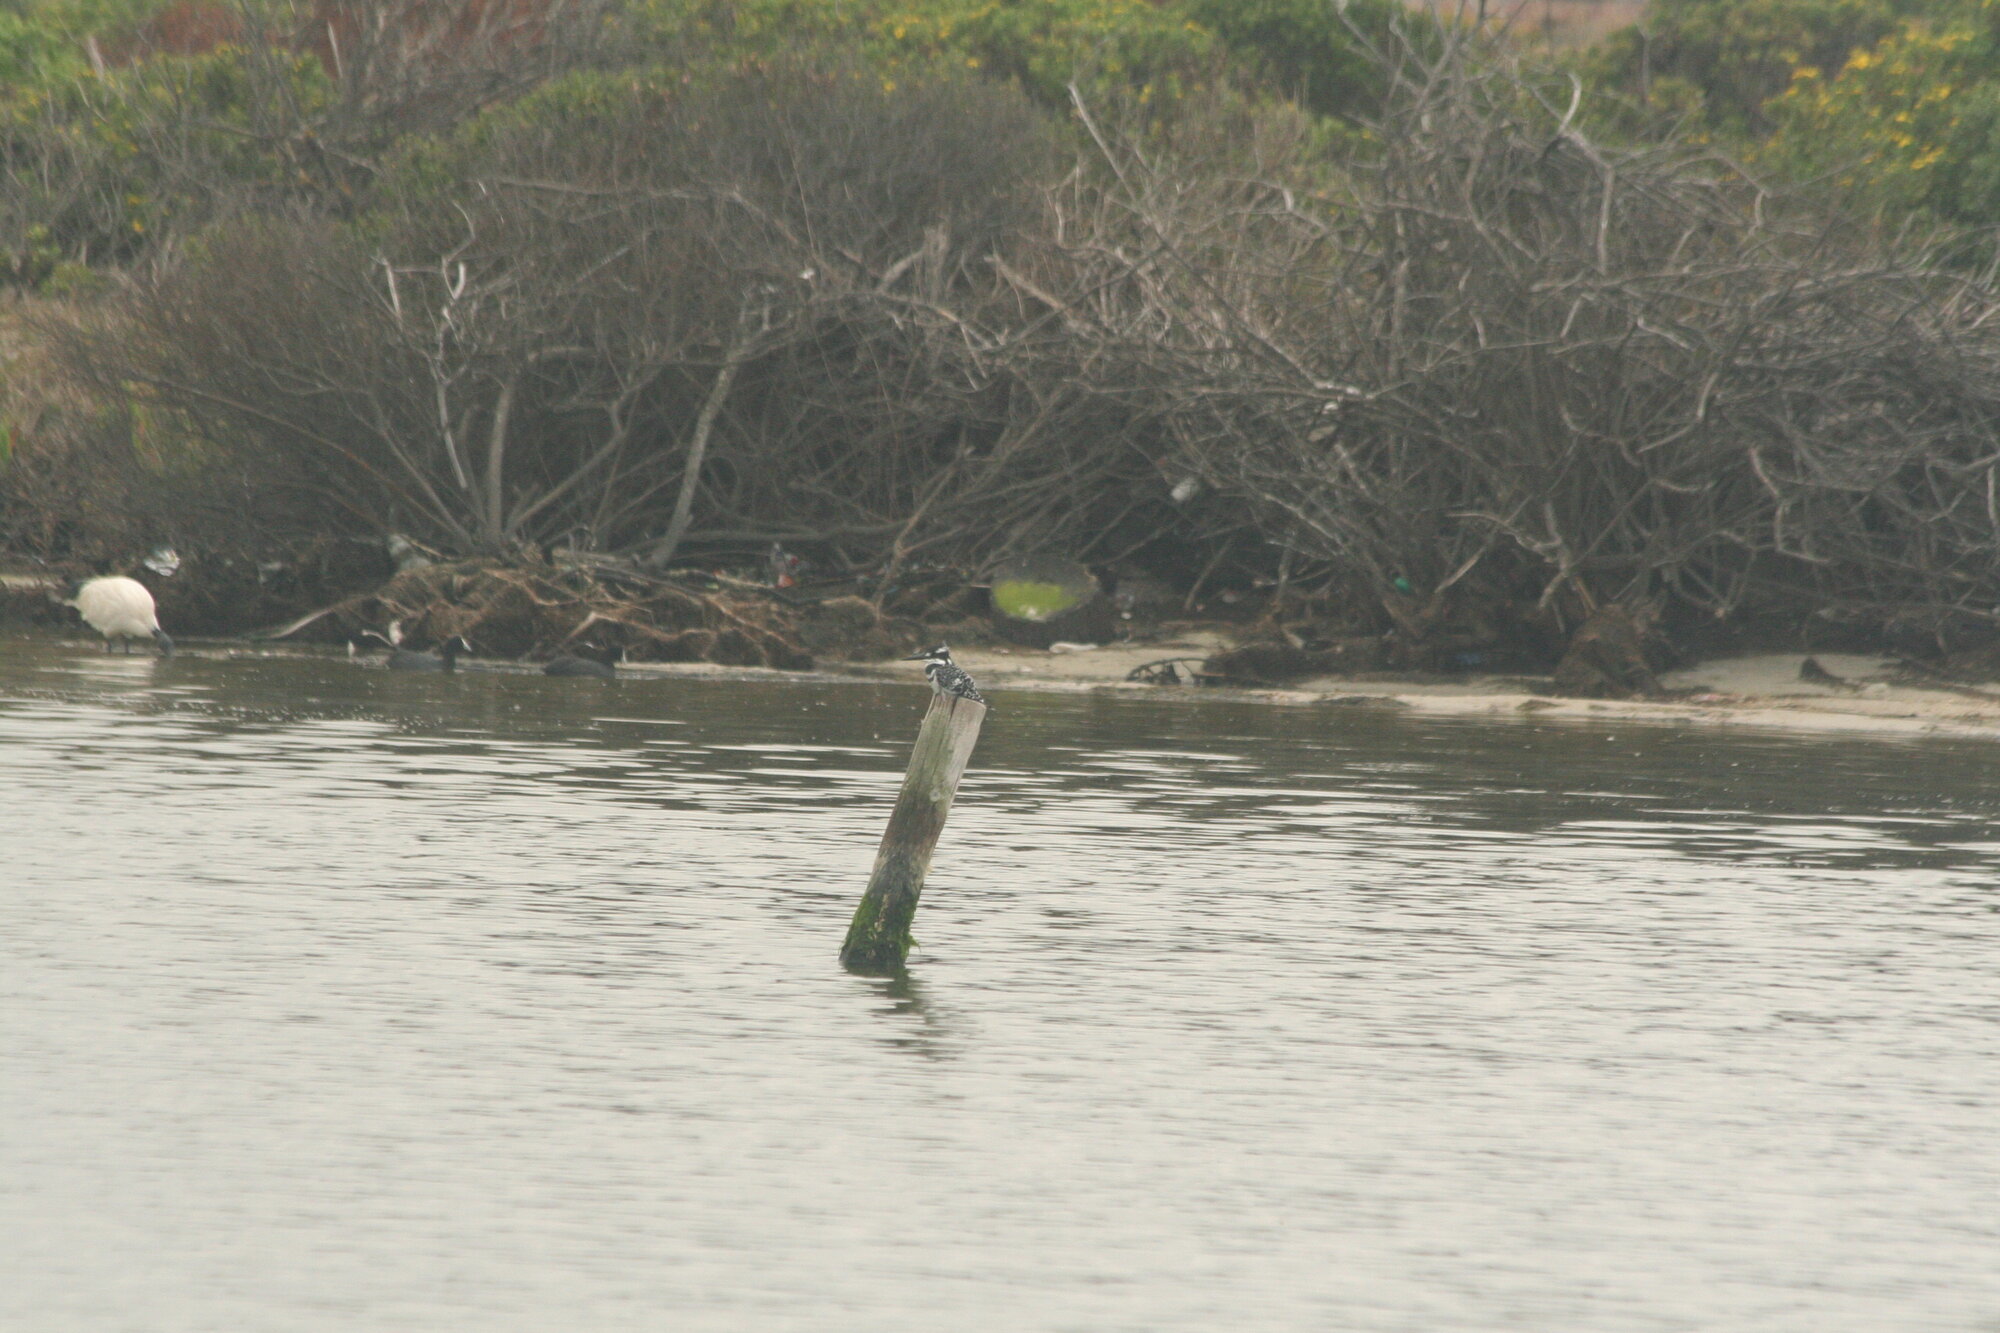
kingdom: Animalia
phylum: Chordata
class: Aves
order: Coraciiformes
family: Alcedinidae
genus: Ceryle
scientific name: Ceryle rudis
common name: Pied kingfisher
